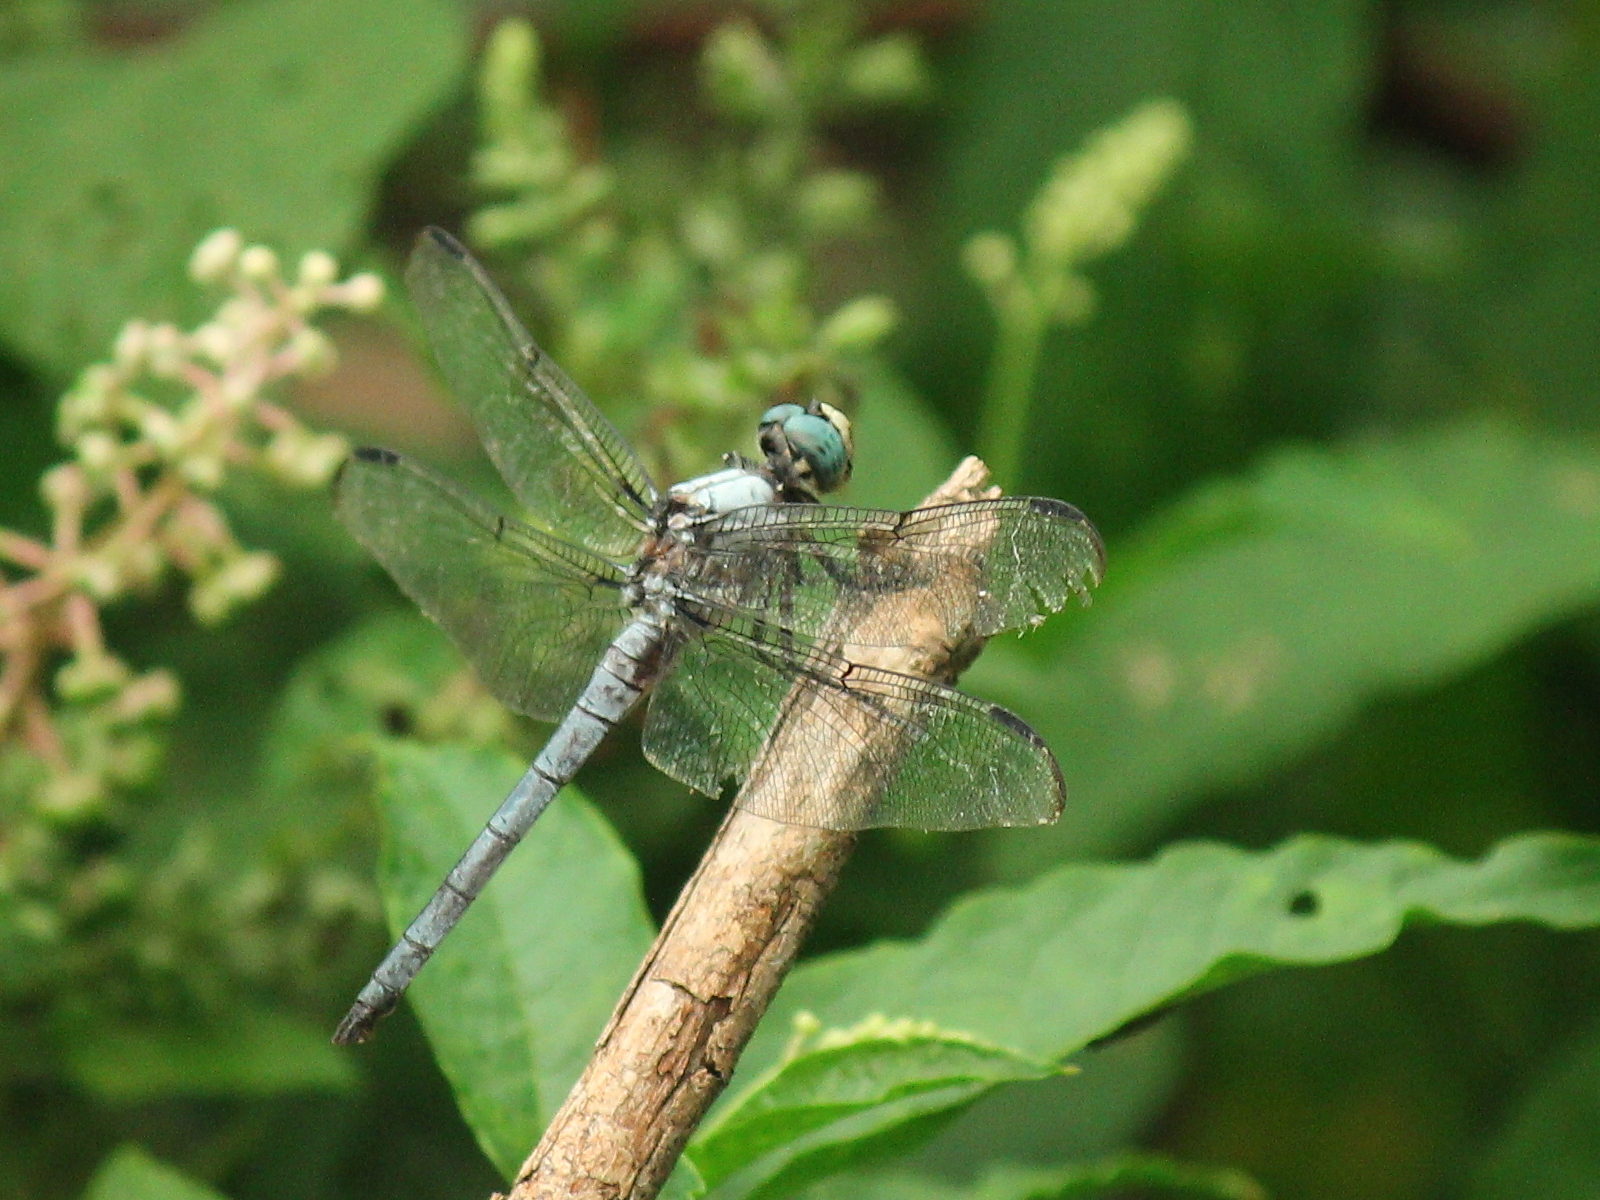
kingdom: Animalia
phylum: Arthropoda
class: Insecta
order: Odonata
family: Libellulidae
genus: Libellula
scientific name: Libellula vibrans
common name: Great blue skimmer
